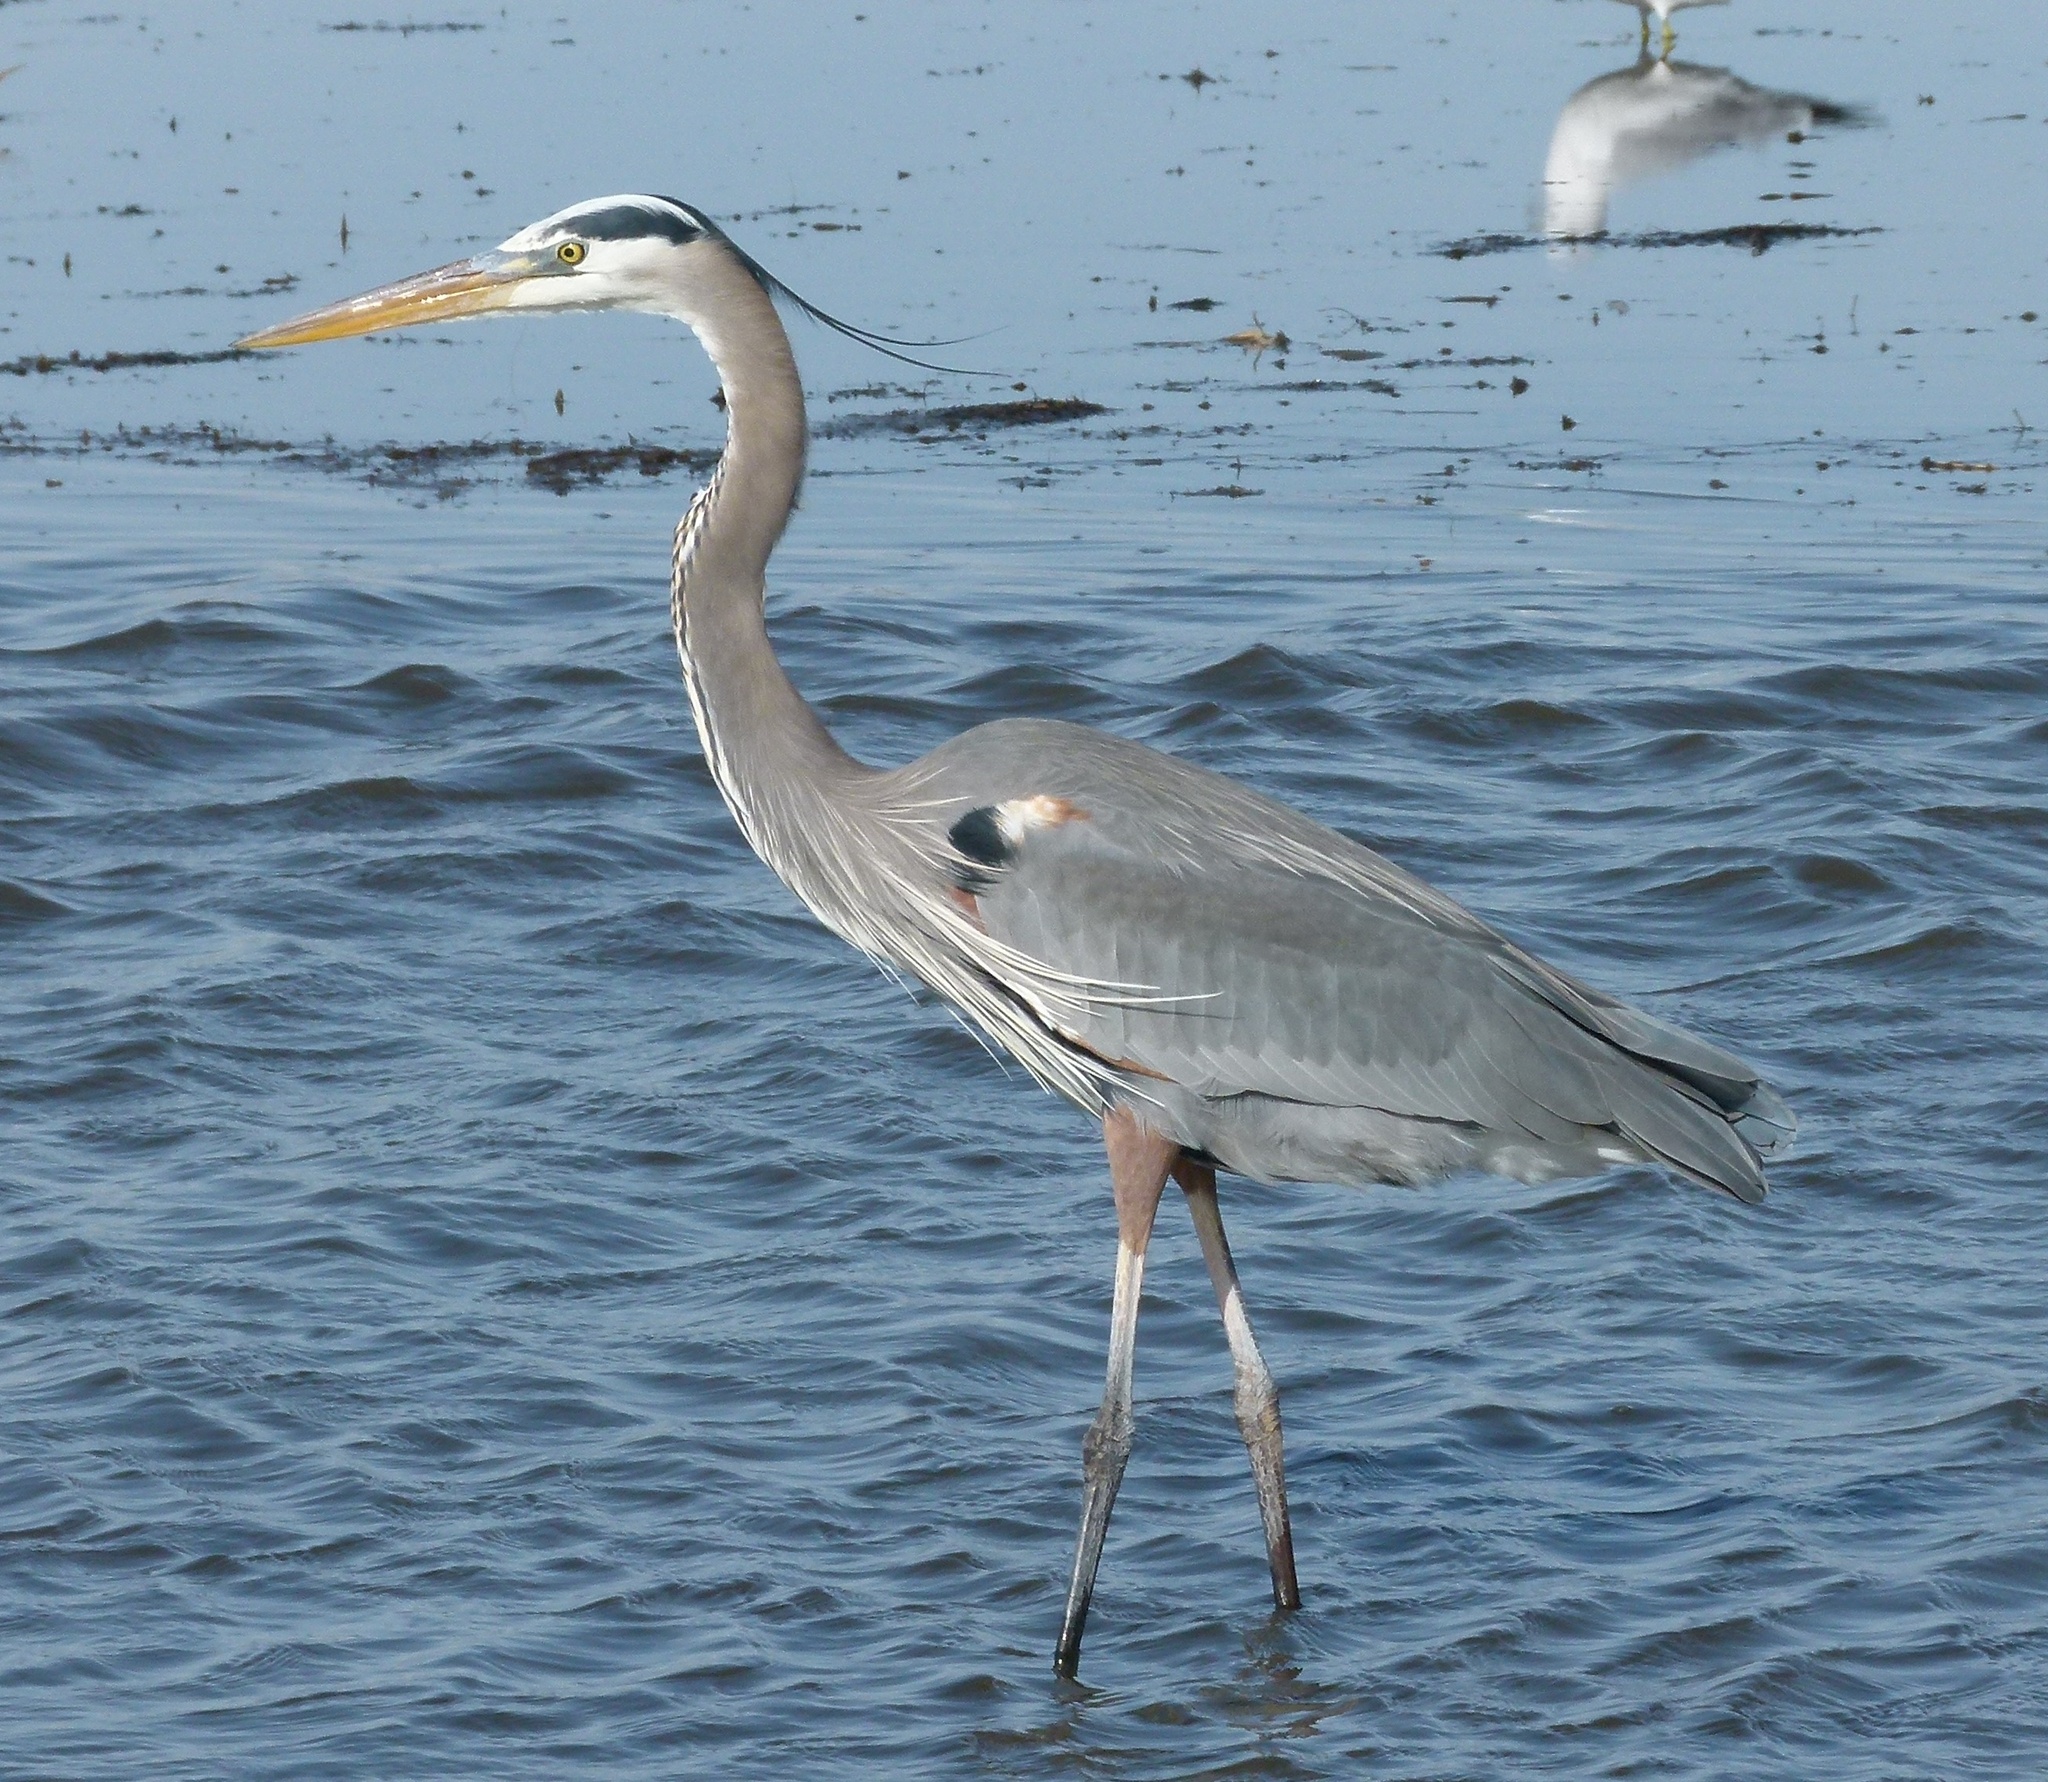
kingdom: Animalia
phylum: Chordata
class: Aves
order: Pelecaniformes
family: Ardeidae
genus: Ardea
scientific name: Ardea herodias
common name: Great blue heron
